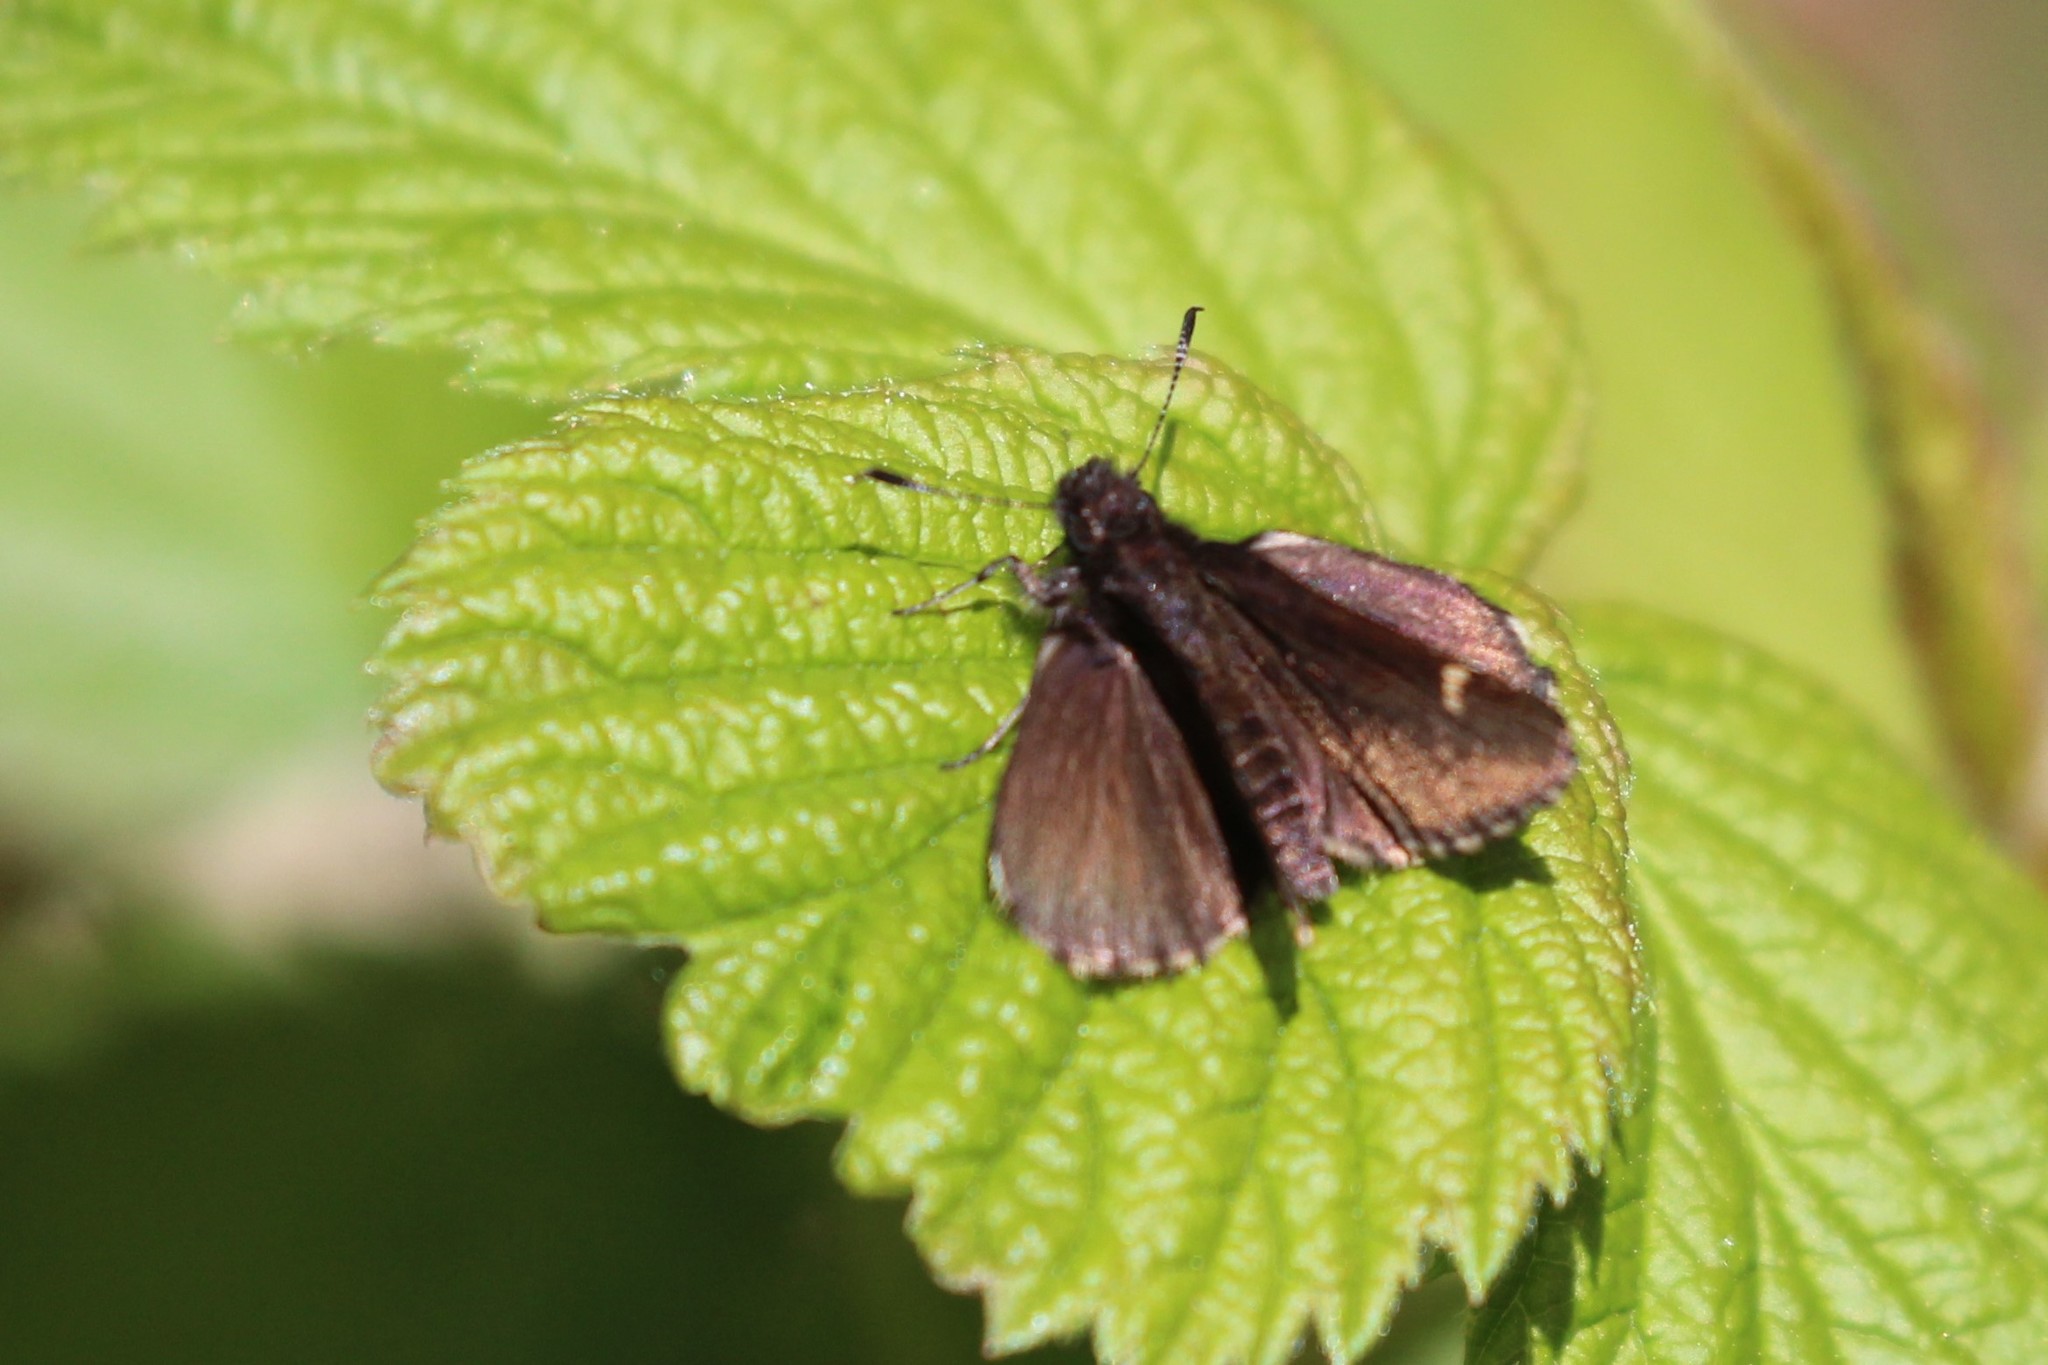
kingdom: Animalia
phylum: Arthropoda
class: Insecta
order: Lepidoptera
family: Hesperiidae
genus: Mastor
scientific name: Mastor vialis
